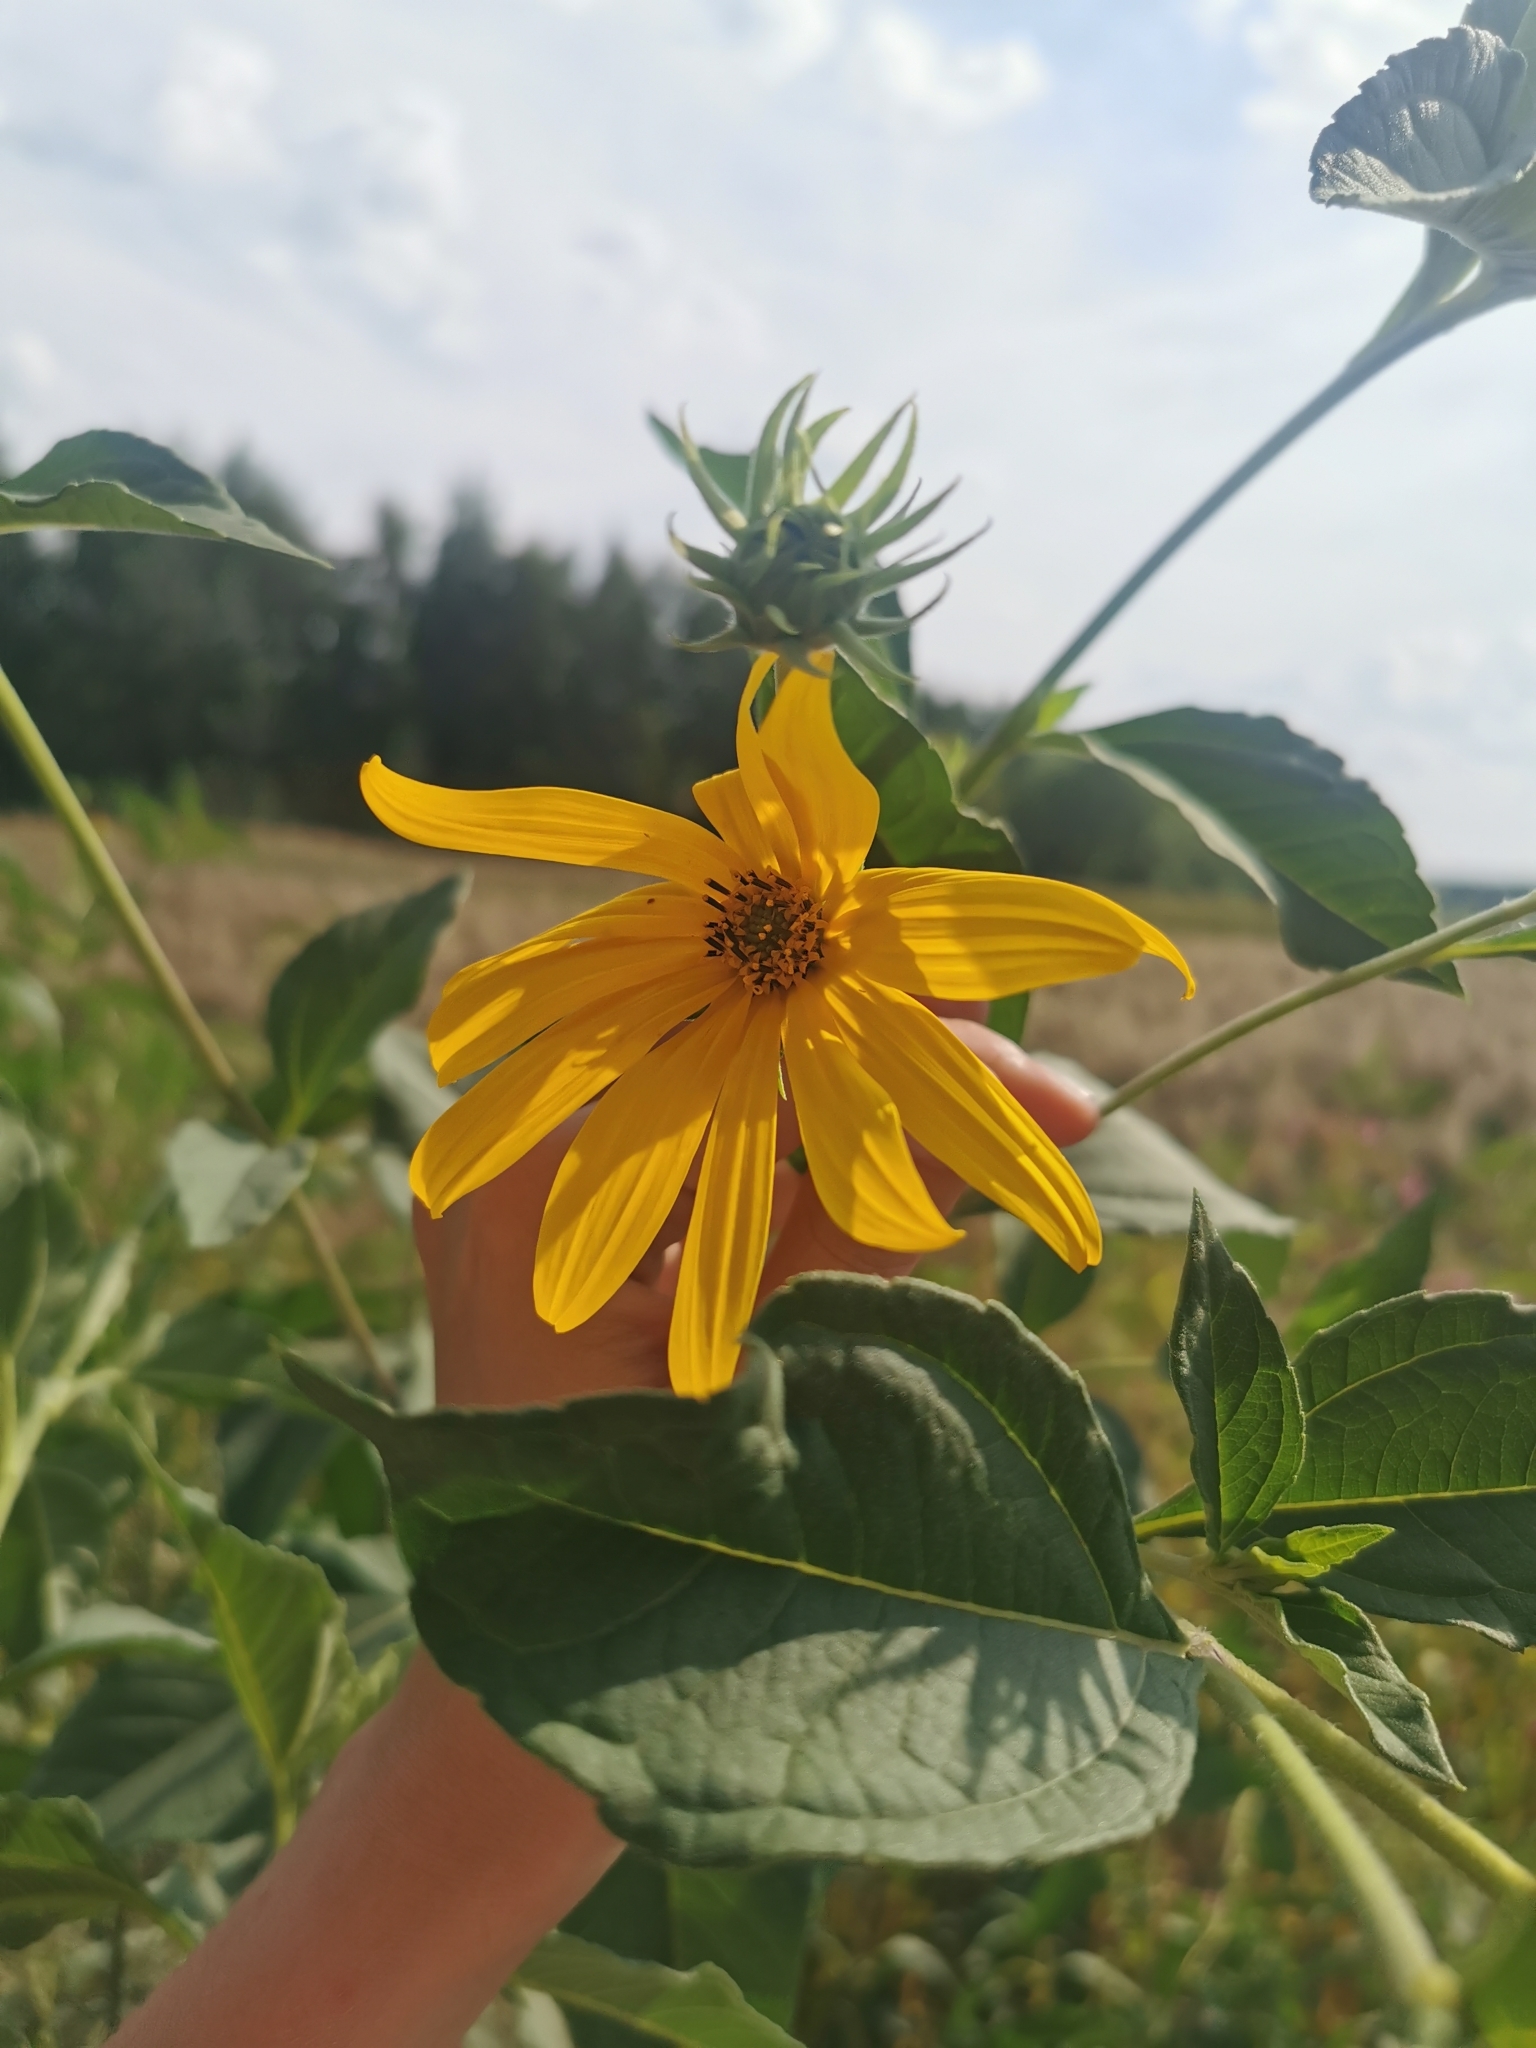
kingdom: Plantae
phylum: Tracheophyta
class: Magnoliopsida
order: Asterales
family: Asteraceae
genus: Helianthus
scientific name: Helianthus tuberosus
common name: Jerusalem artichoke
